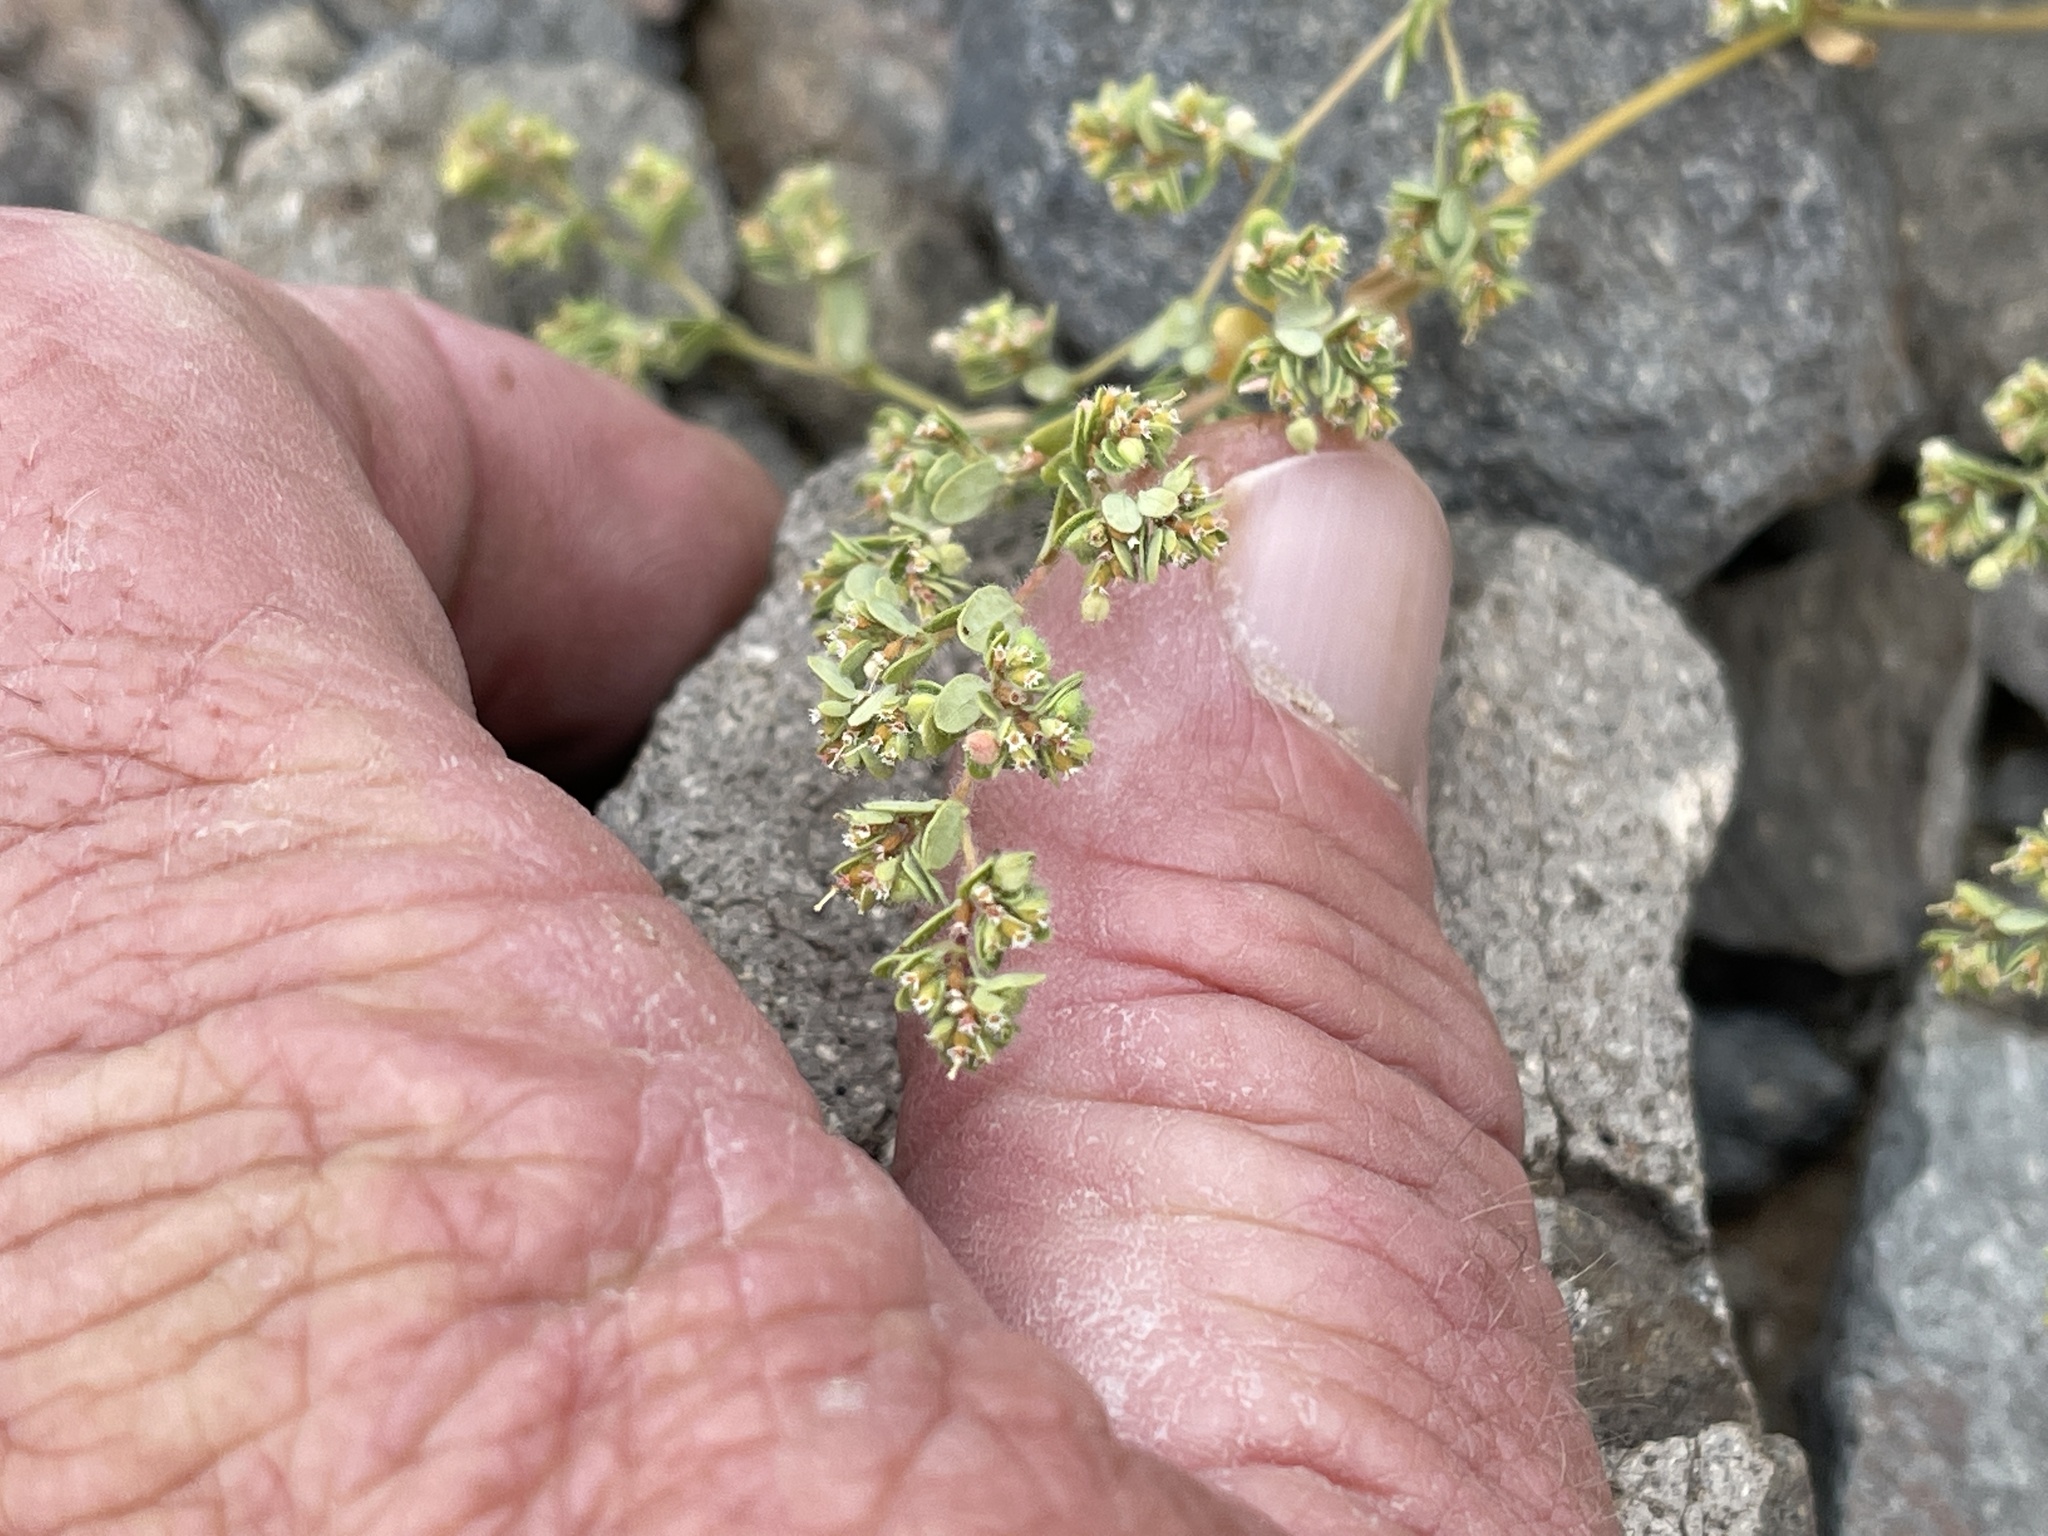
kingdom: Plantae
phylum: Tracheophyta
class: Magnoliopsida
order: Malpighiales
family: Euphorbiaceae
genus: Euphorbia
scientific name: Euphorbia setiloba
